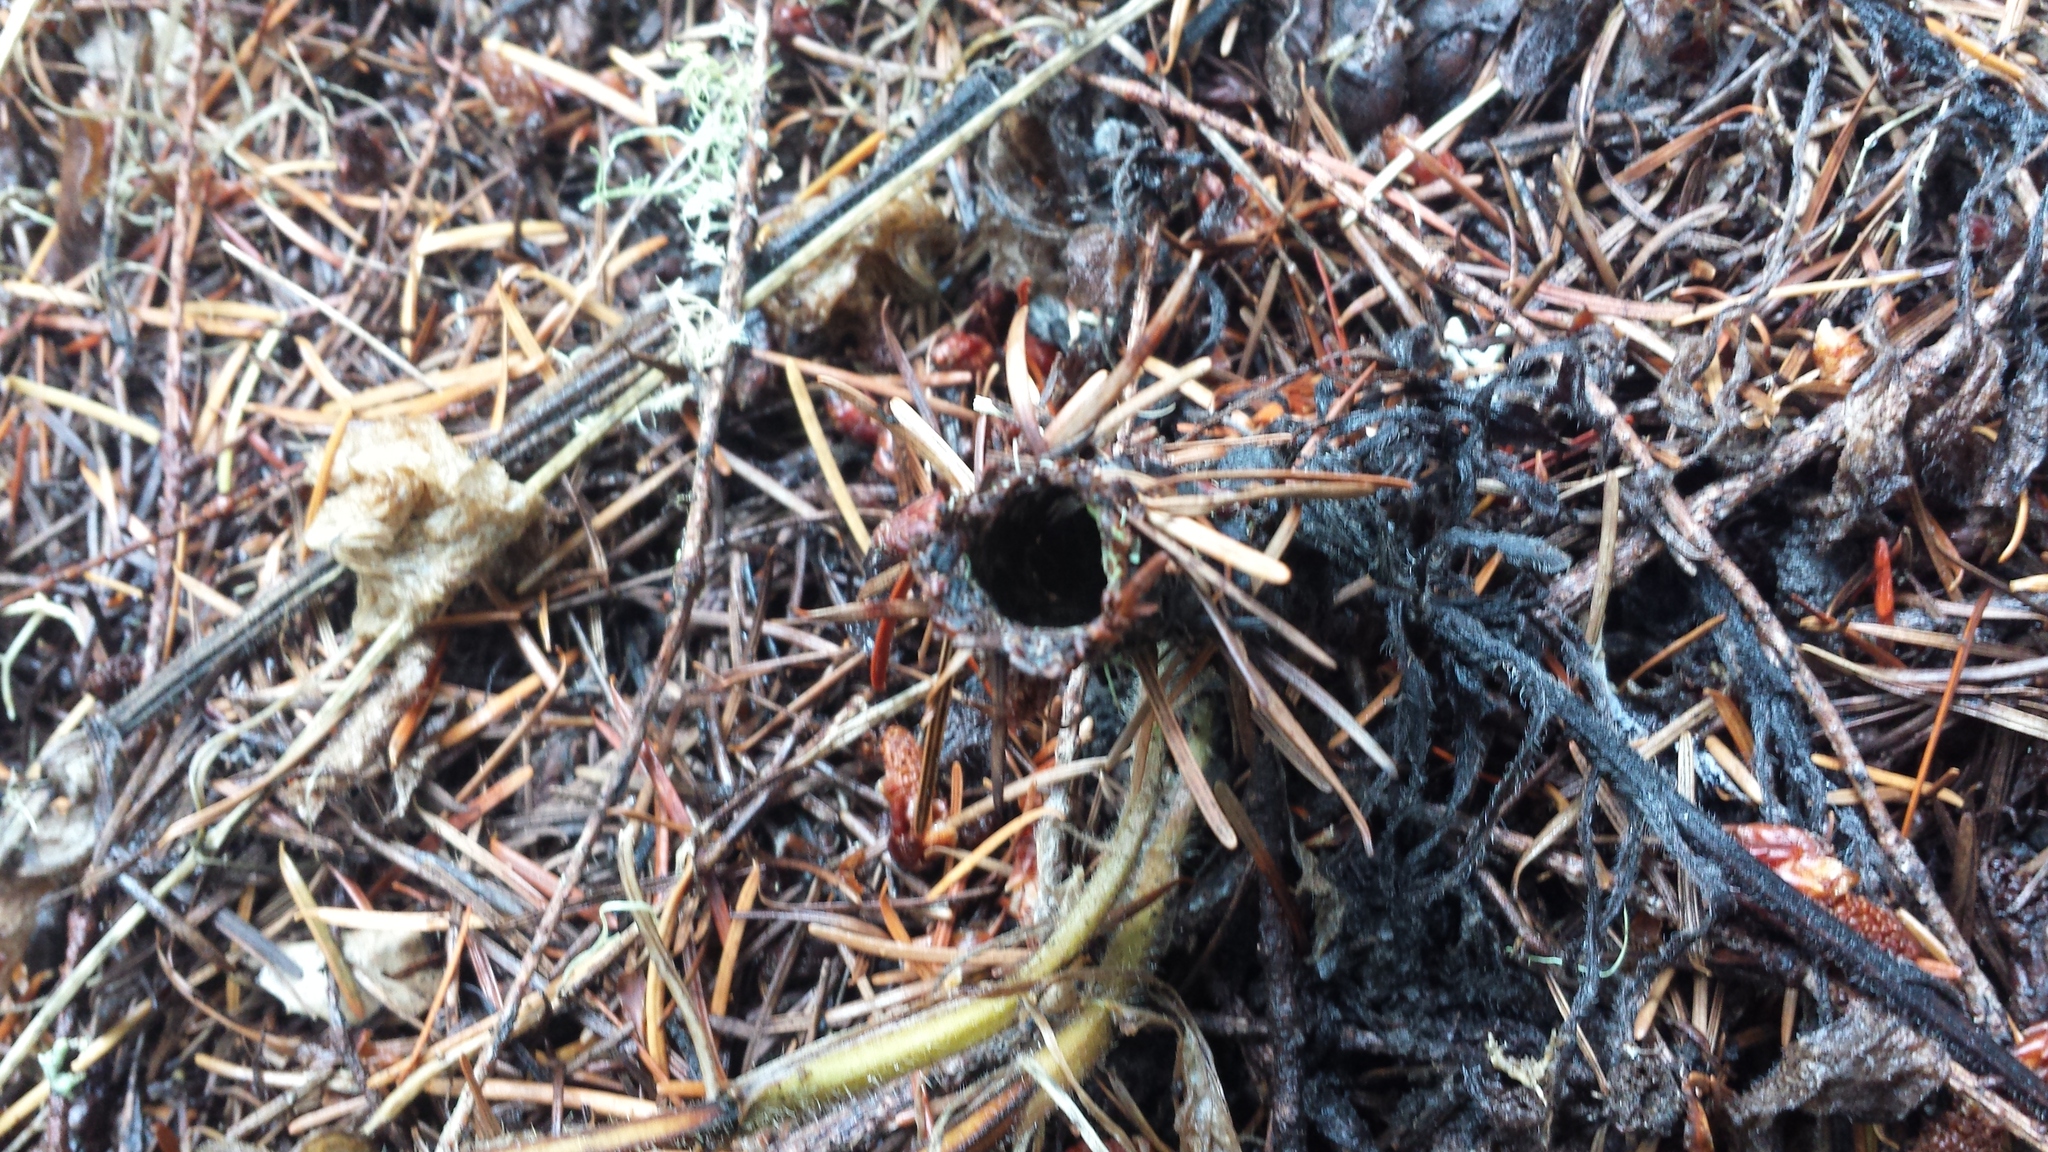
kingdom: Animalia
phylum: Arthropoda
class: Arachnida
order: Araneae
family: Antrodiaetidae
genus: Atypoides
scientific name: Atypoides riversi
